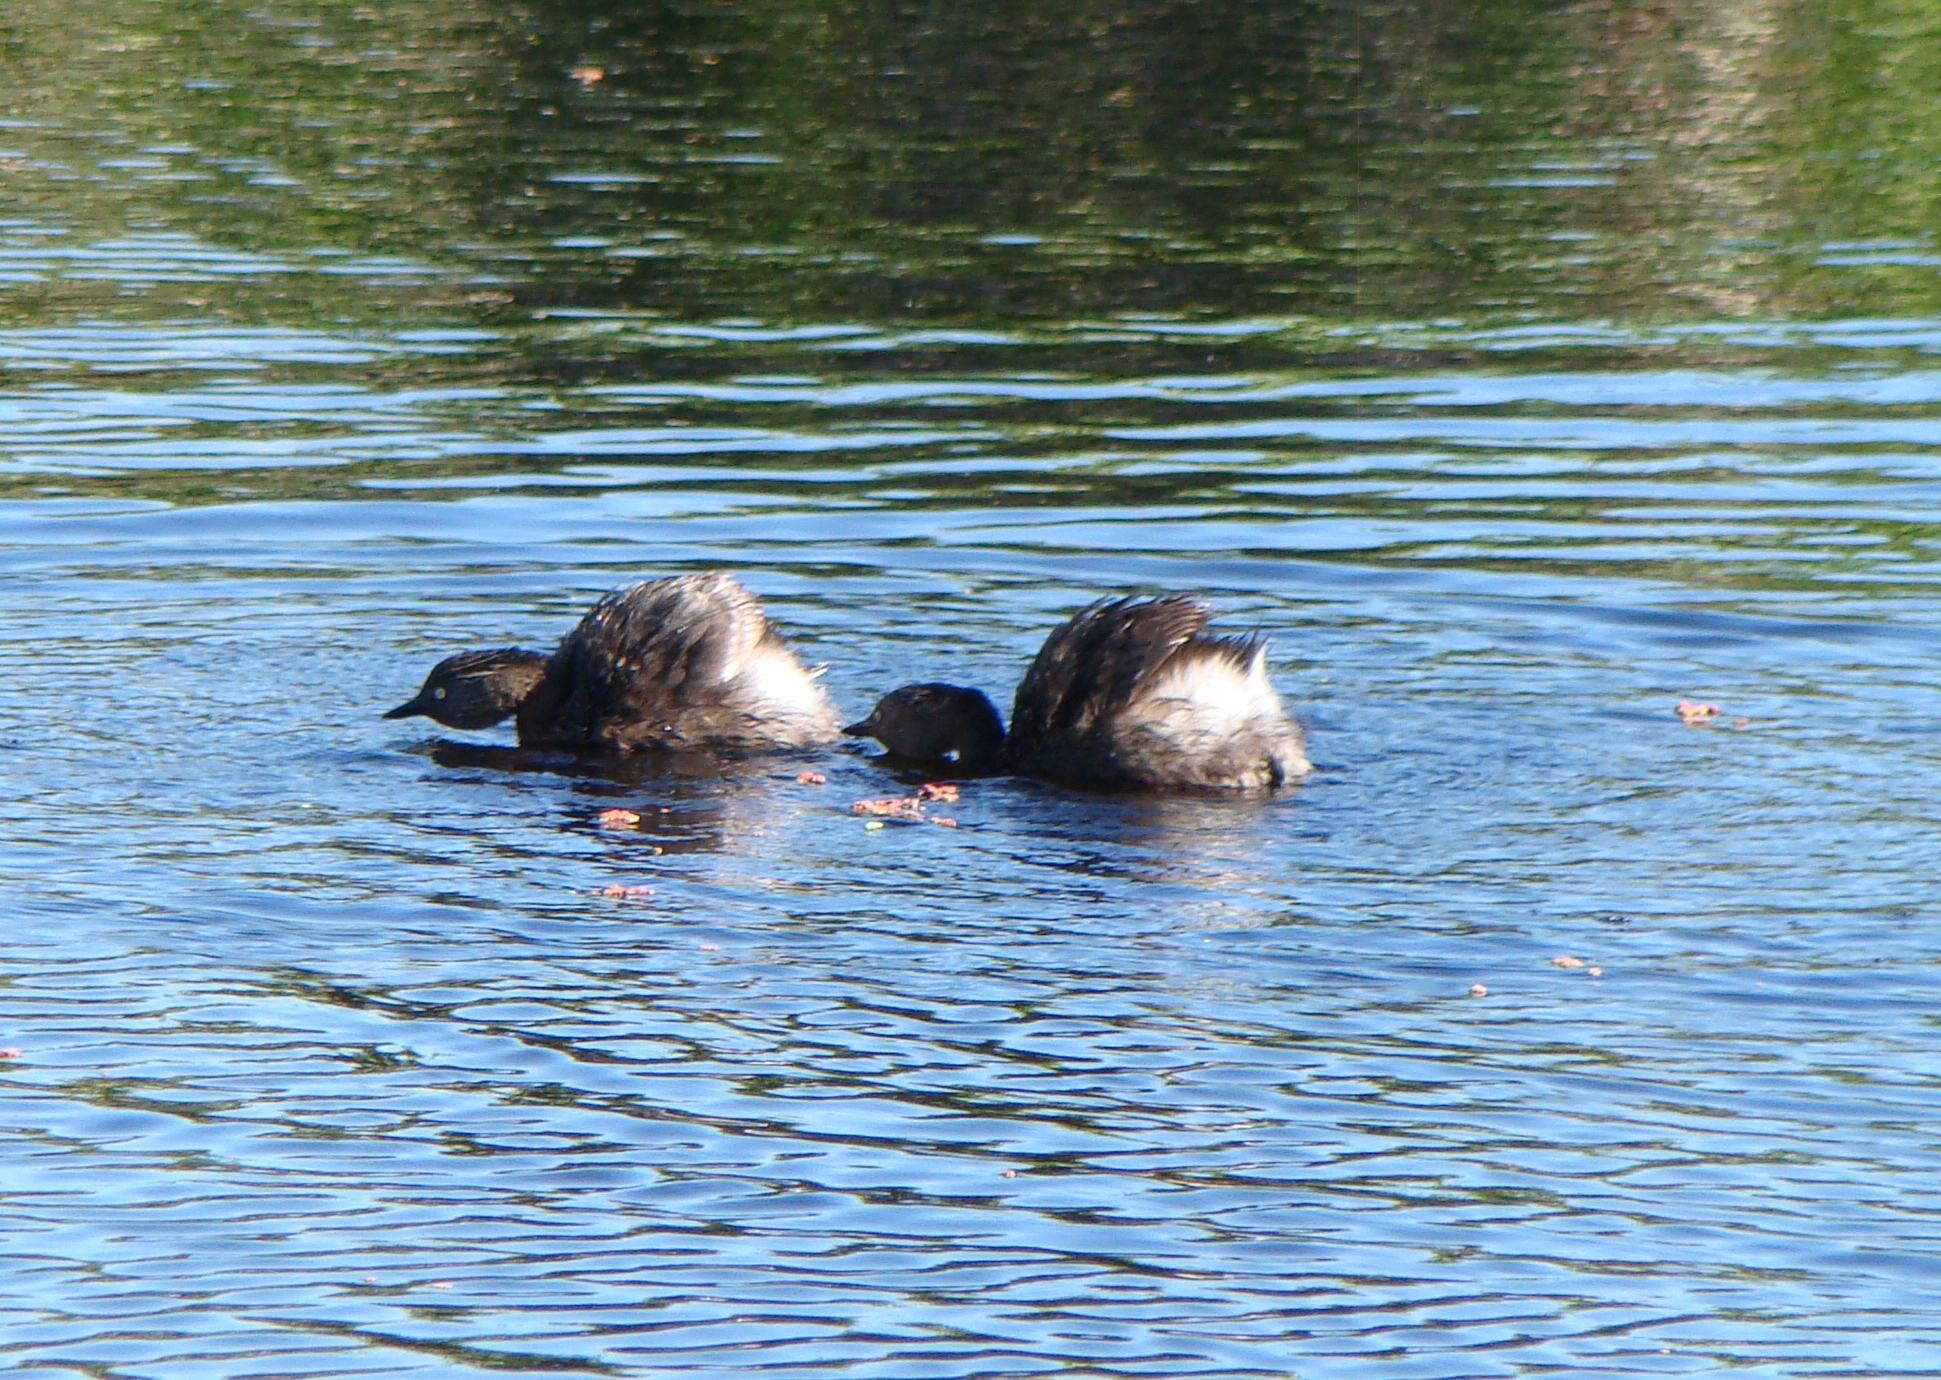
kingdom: Animalia
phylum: Chordata
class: Aves
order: Podicipediformes
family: Podicipedidae
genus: Poliocephalus
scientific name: Poliocephalus rufopectus
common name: New zealand grebe
